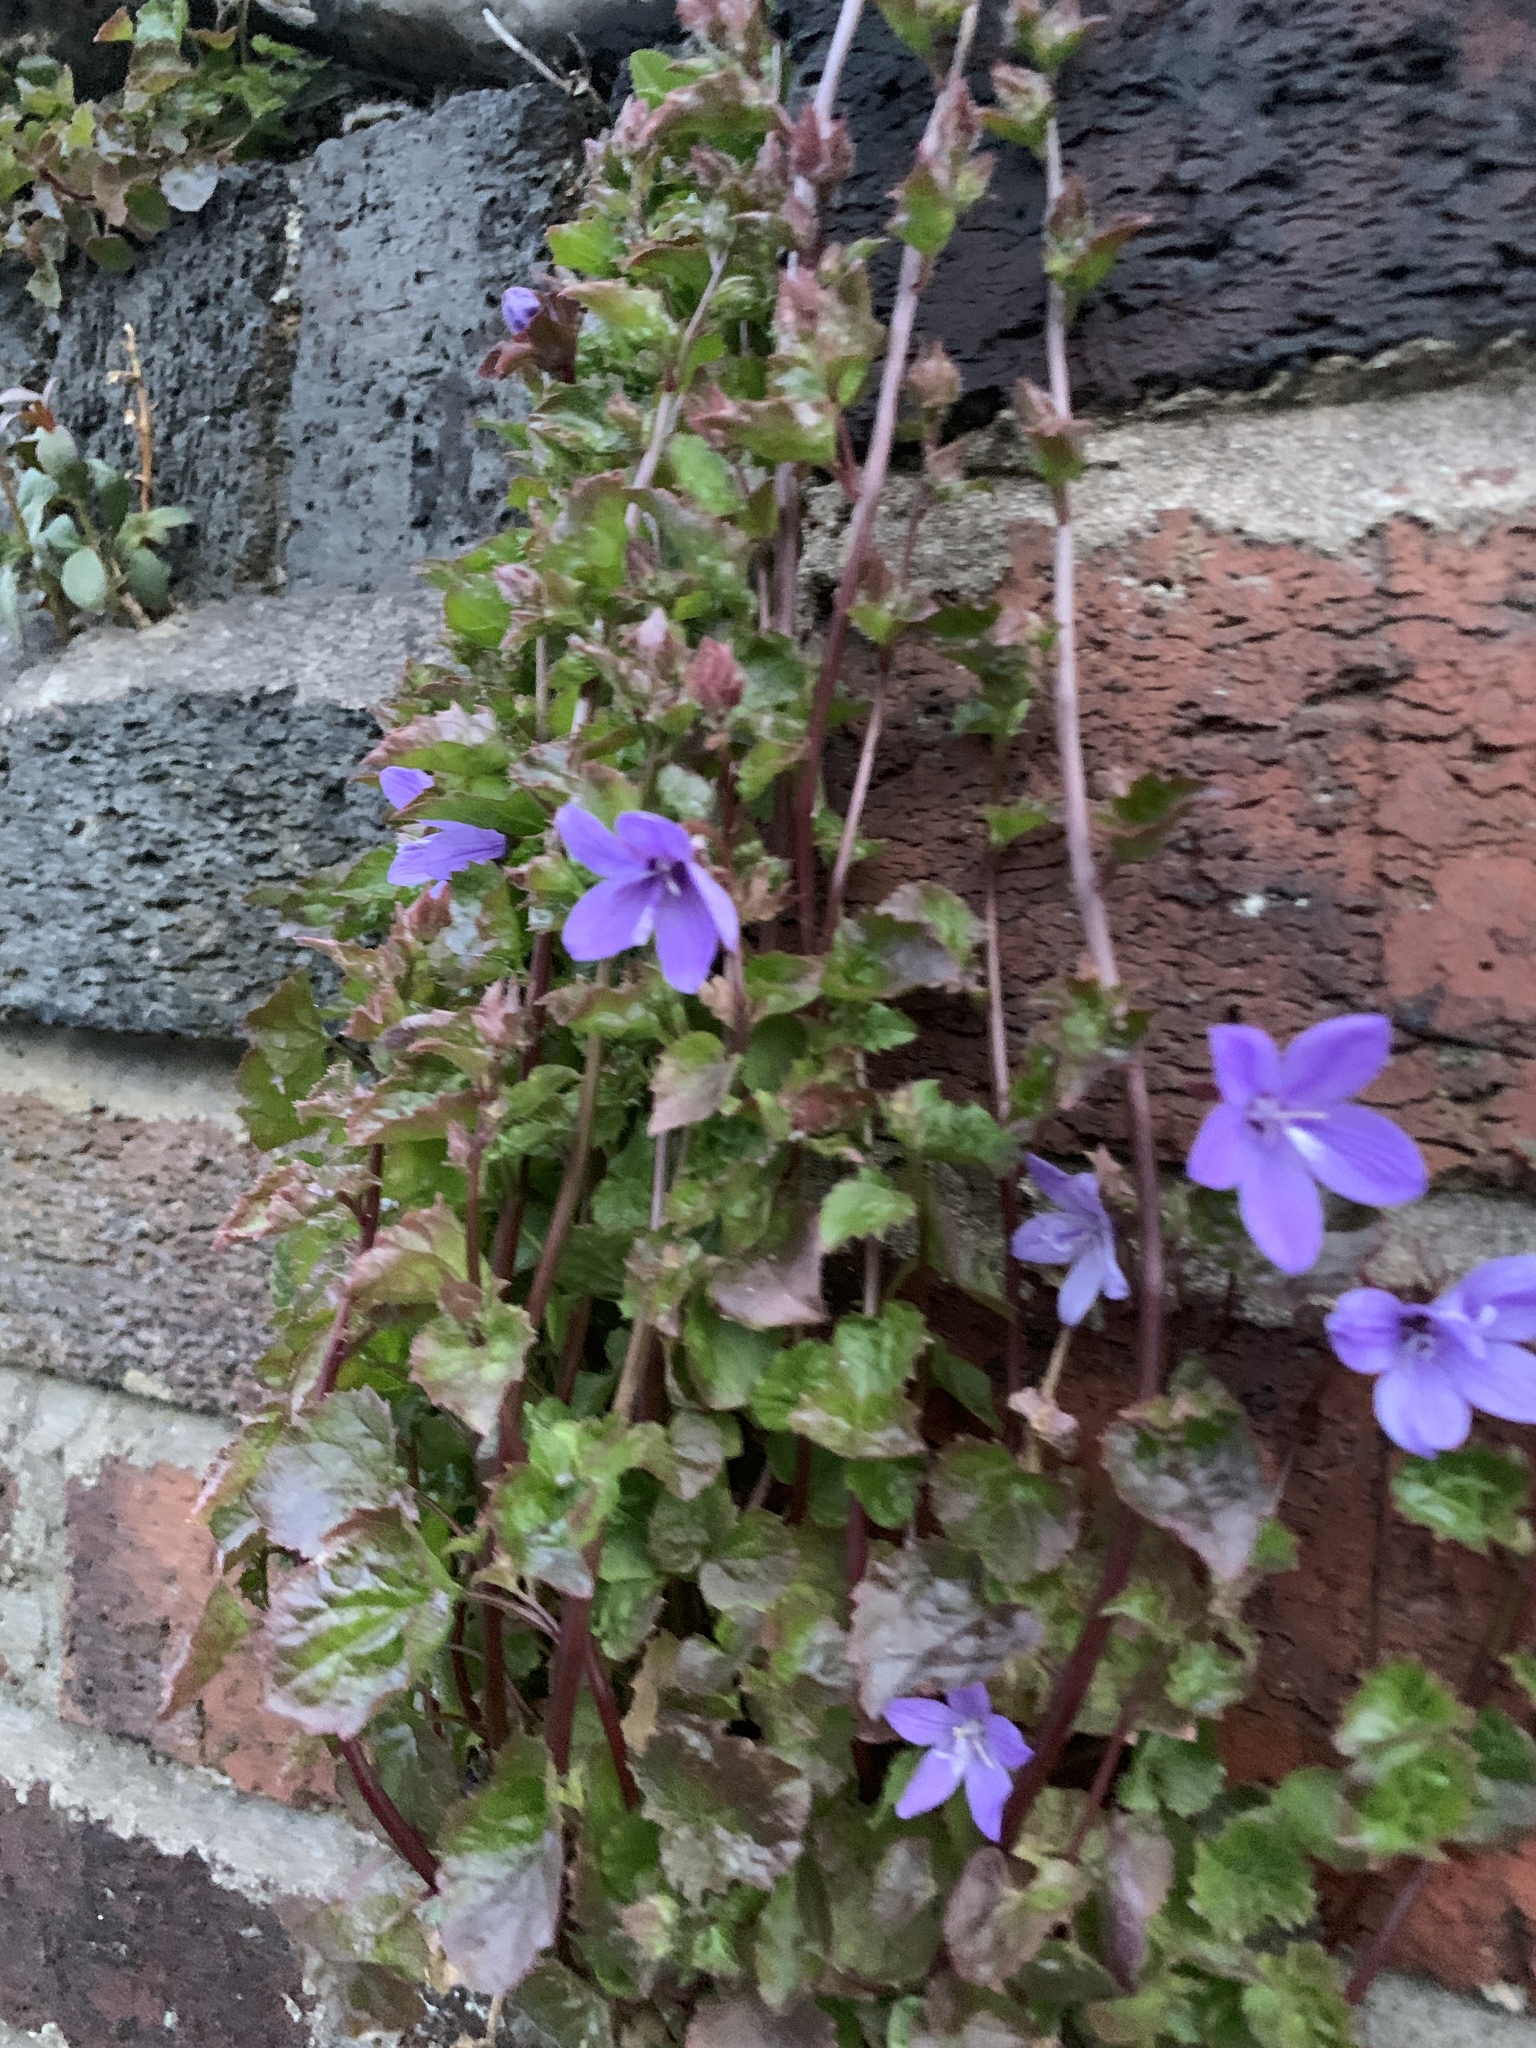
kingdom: Plantae
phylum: Tracheophyta
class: Magnoliopsida
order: Asterales
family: Campanulaceae
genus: Campanula
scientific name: Campanula poscharskyana
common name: Trailing bellflower
